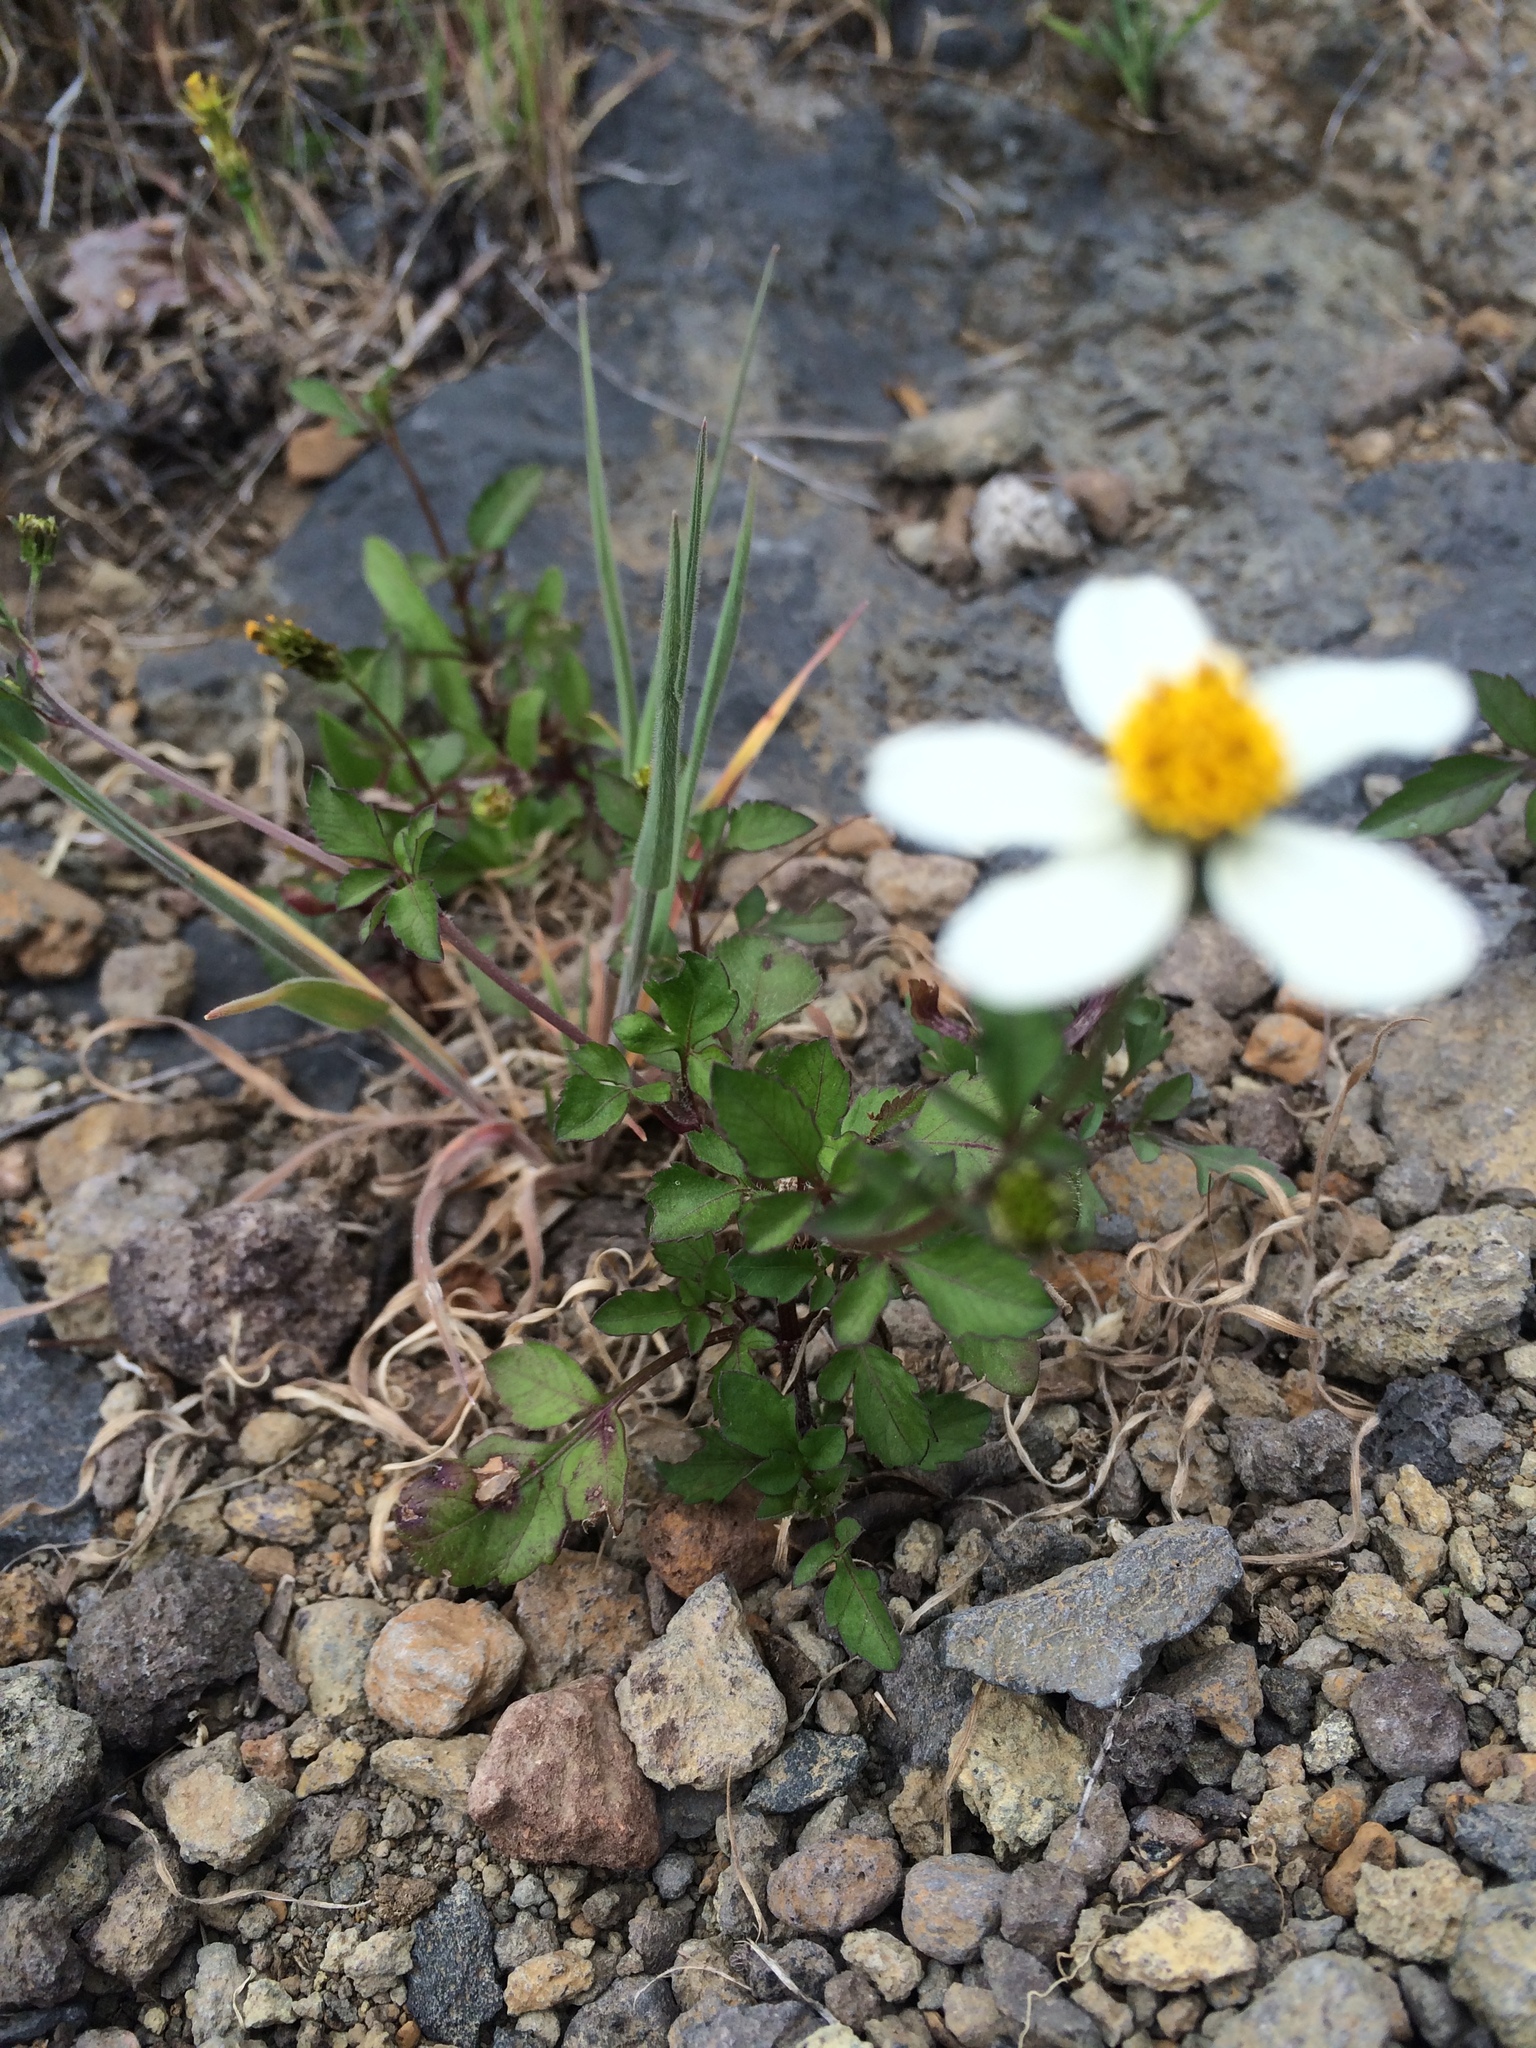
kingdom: Plantae
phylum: Tracheophyta
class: Magnoliopsida
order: Asterales
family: Asteraceae
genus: Bidens
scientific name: Bidens pilosa
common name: Black-jack
